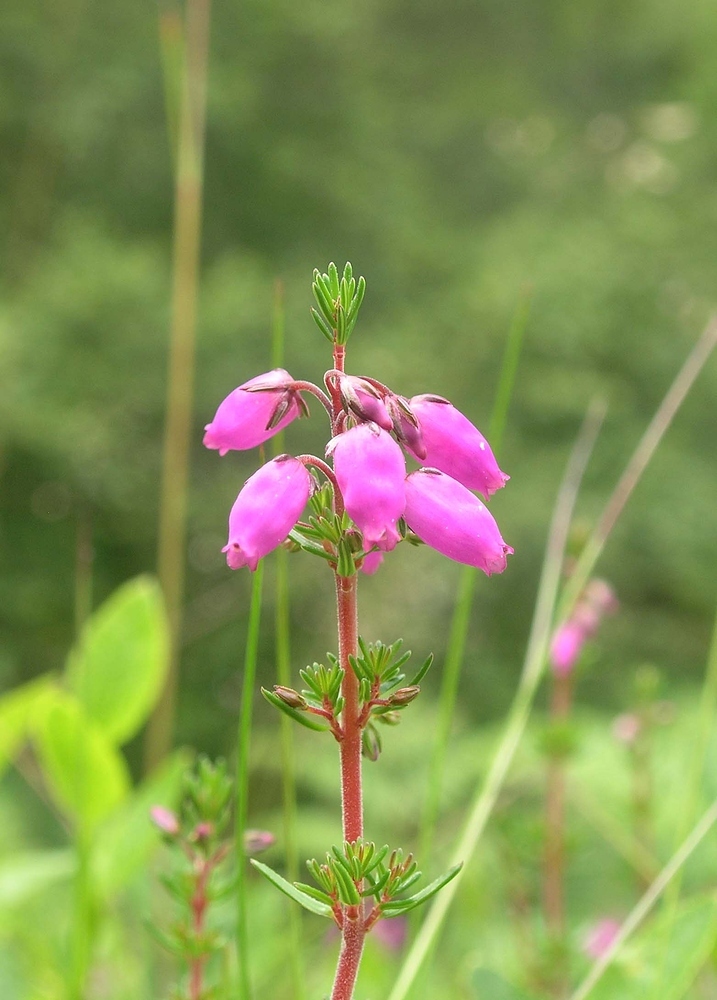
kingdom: Plantae
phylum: Tracheophyta
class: Magnoliopsida
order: Ericales
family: Ericaceae
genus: Erica
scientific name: Erica cinerea
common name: Bell heather
